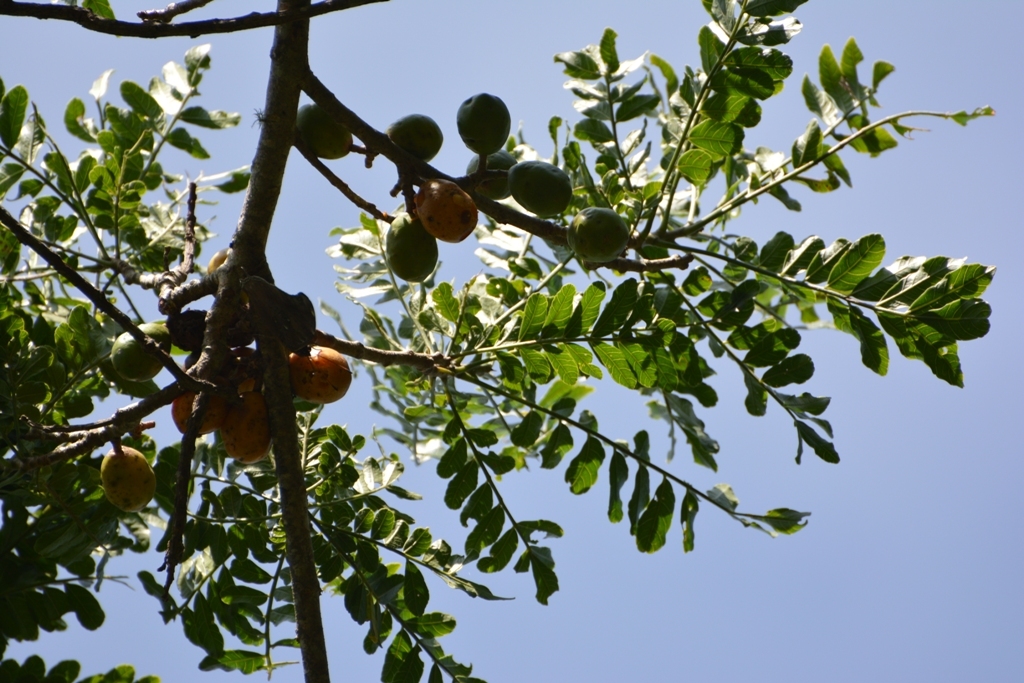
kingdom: Plantae
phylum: Tracheophyta
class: Magnoliopsida
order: Sapindales
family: Anacardiaceae
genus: Spondias
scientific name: Spondias purpurea
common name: Purple mombin
